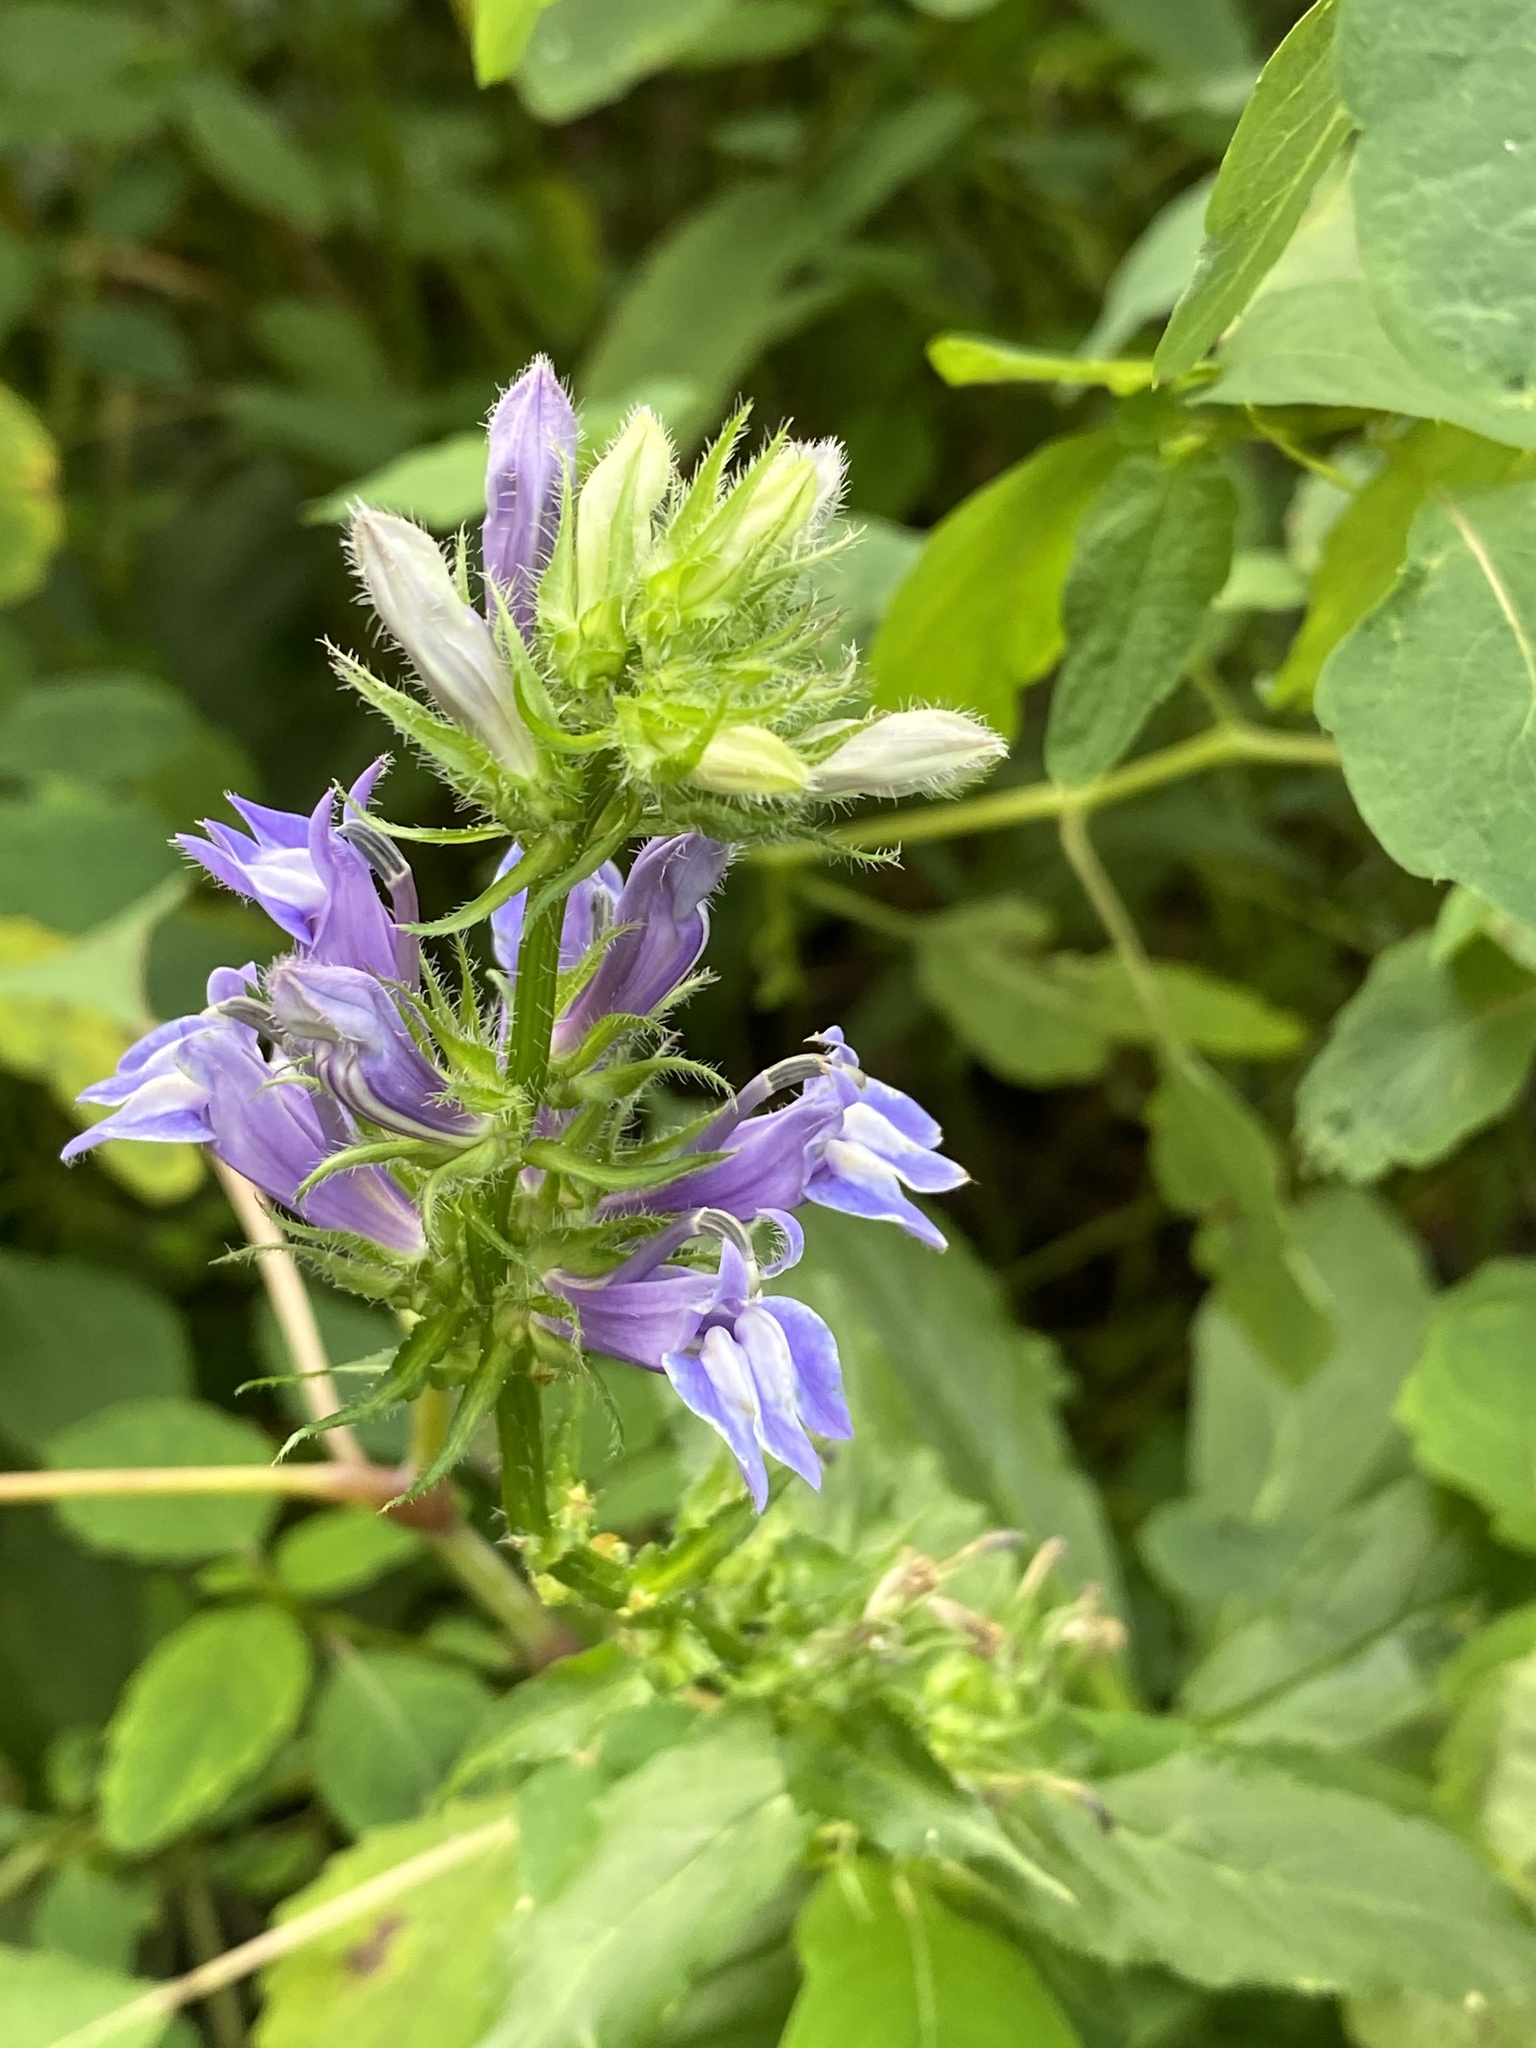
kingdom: Plantae
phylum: Tracheophyta
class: Magnoliopsida
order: Asterales
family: Campanulaceae
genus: Lobelia
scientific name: Lobelia siphilitica
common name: Great lobelia
